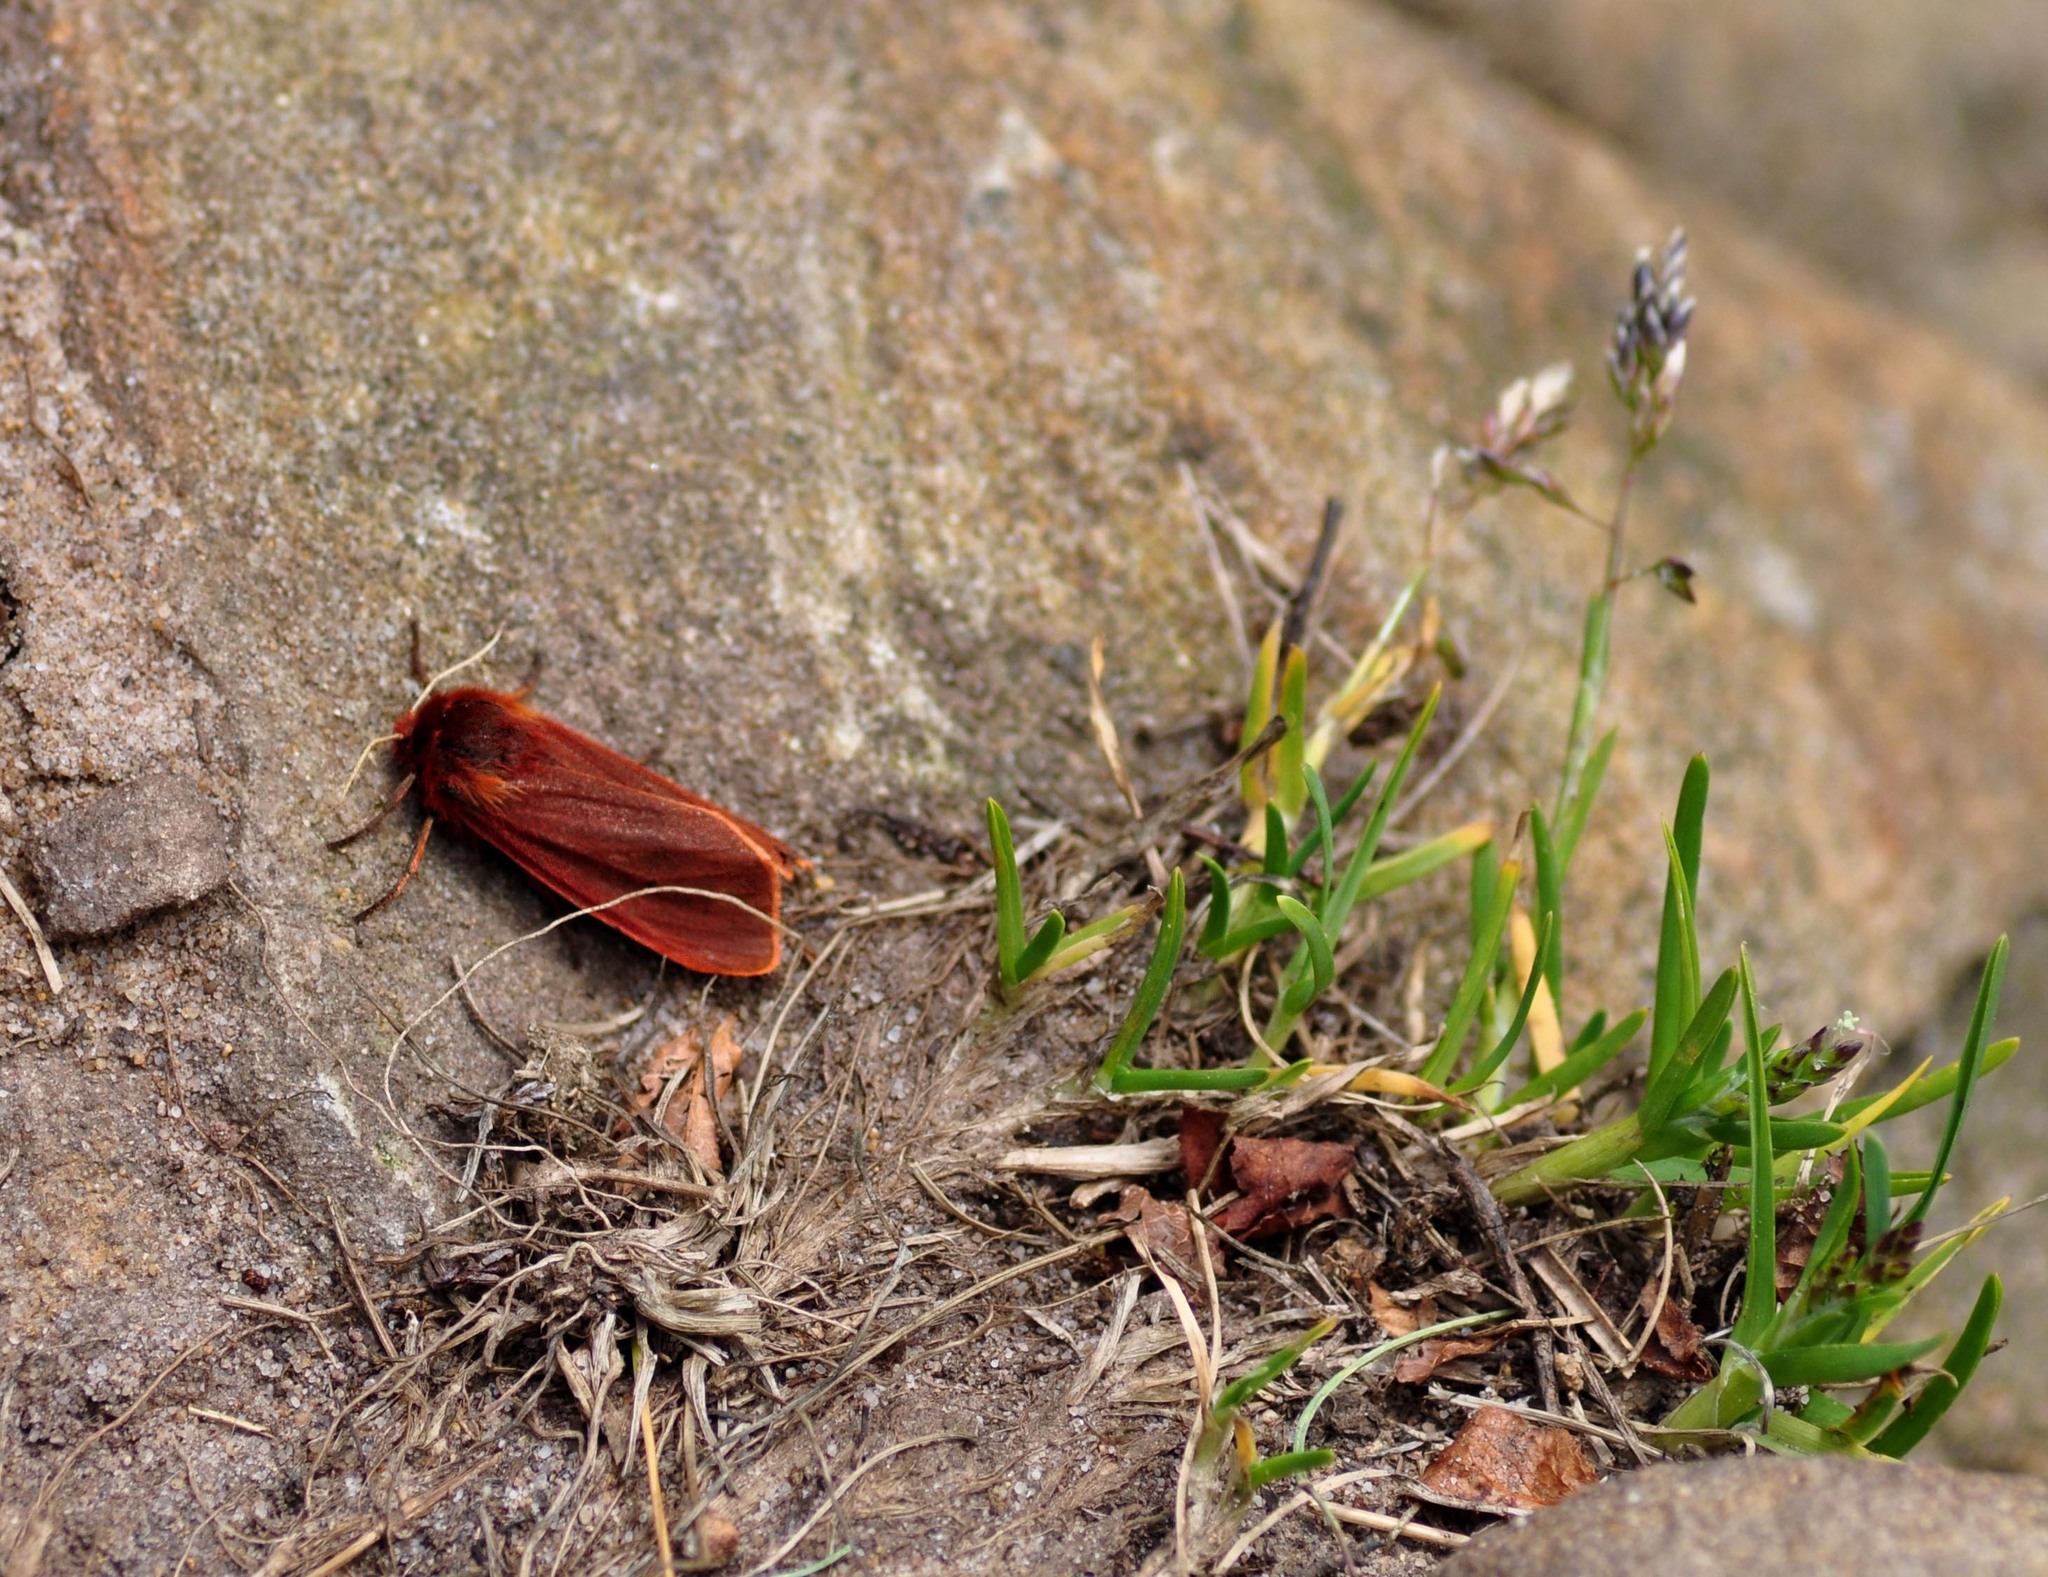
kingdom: Animalia
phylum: Arthropoda
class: Insecta
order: Lepidoptera
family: Erebidae
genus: Phragmatobia
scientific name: Phragmatobia fuliginosa
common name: Ruby tiger
